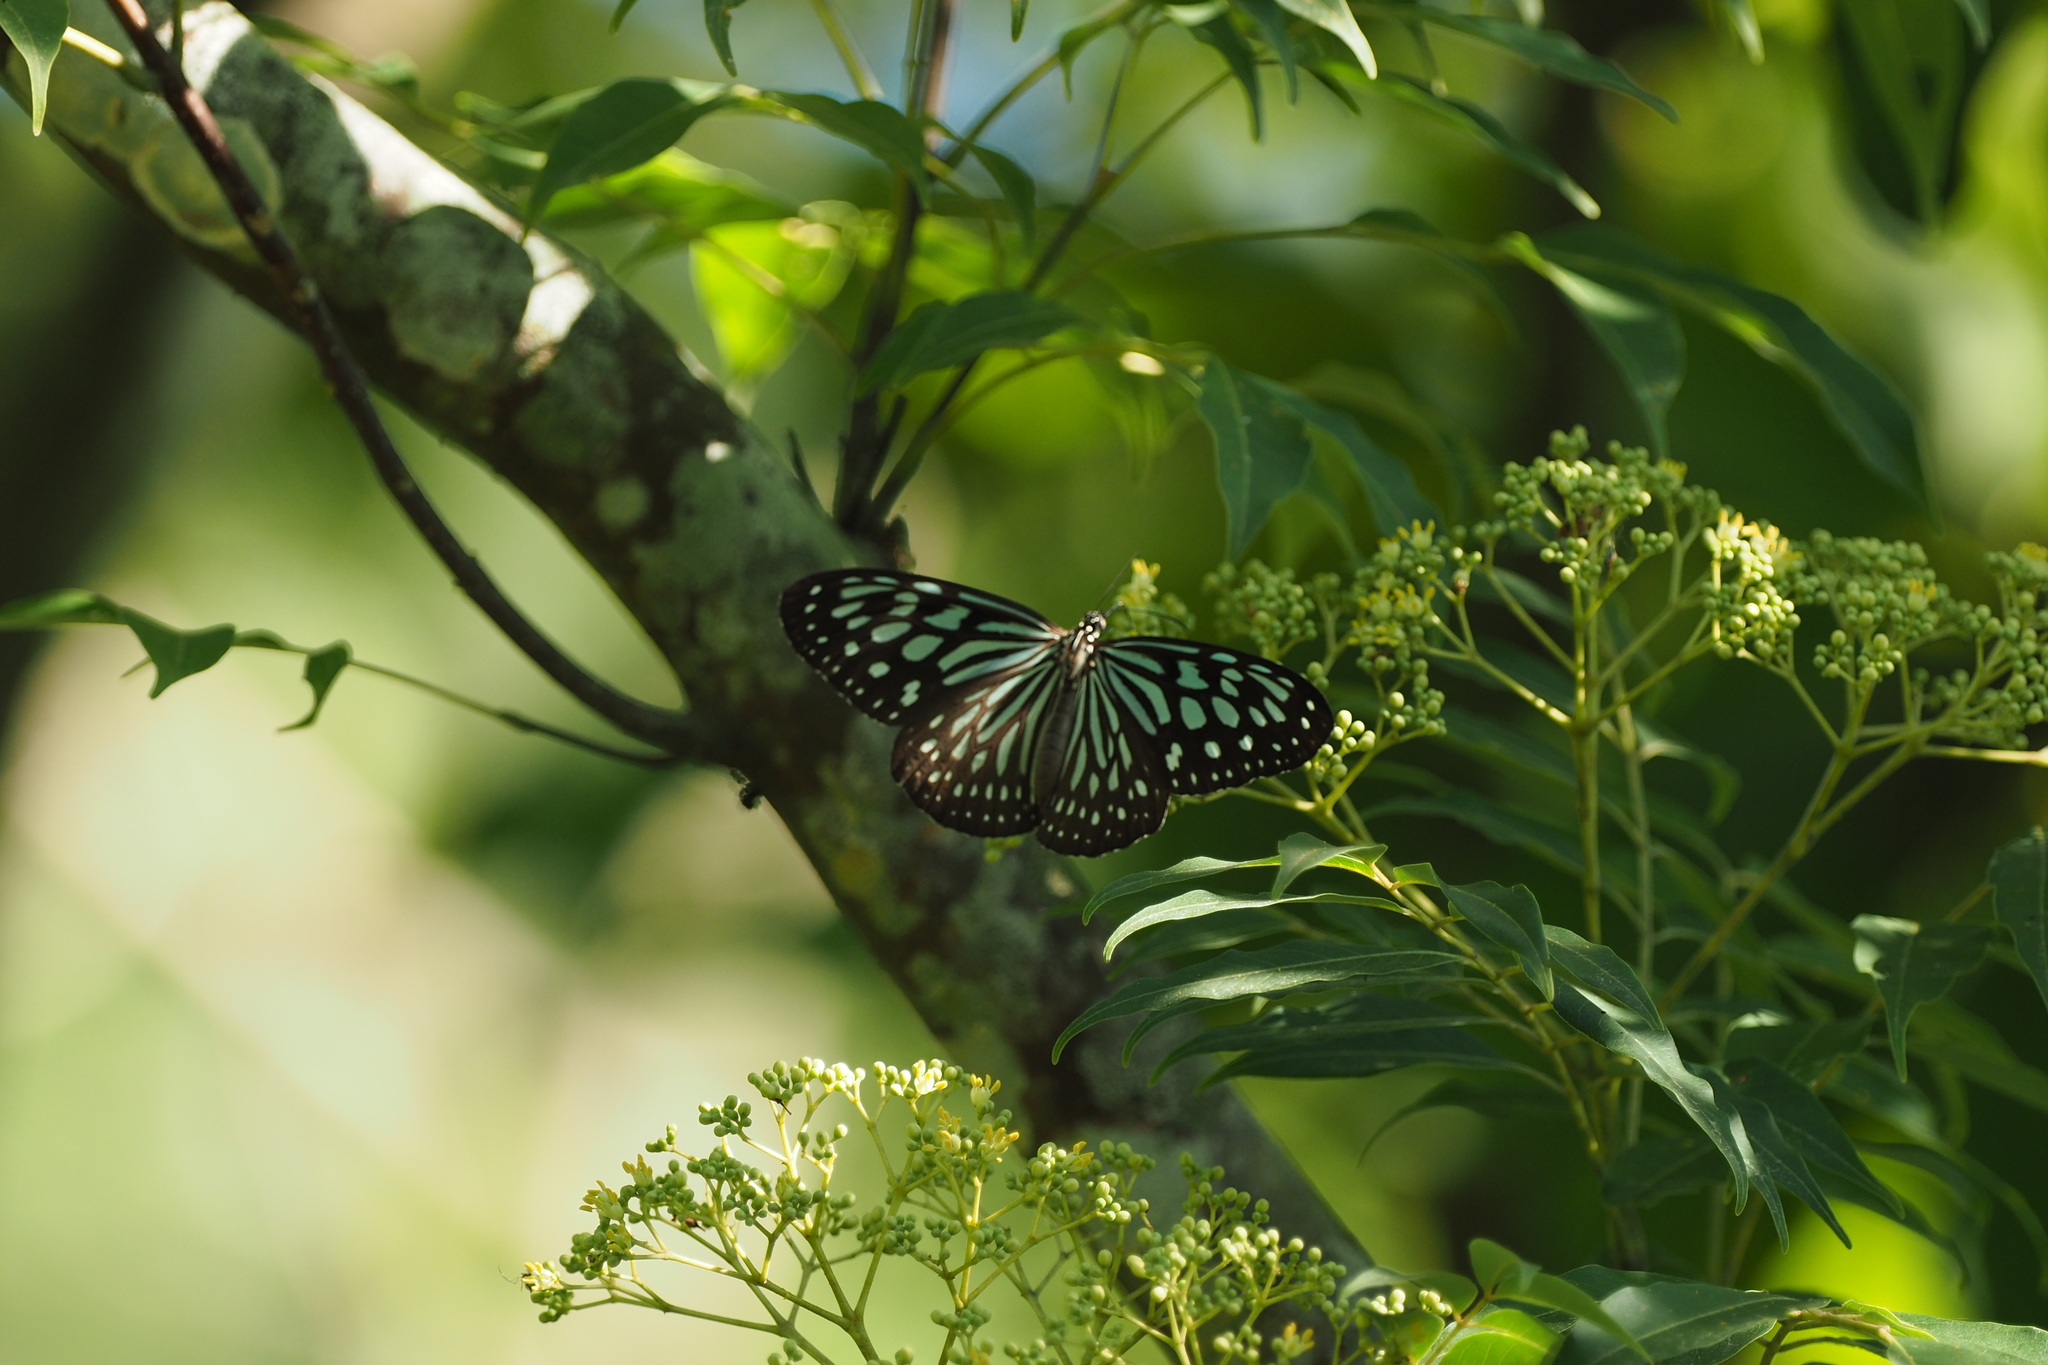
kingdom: Animalia
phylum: Arthropoda
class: Insecta
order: Lepidoptera
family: Nymphalidae
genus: Ideopsis
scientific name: Ideopsis similis
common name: Ceylon blue glassy tiger
